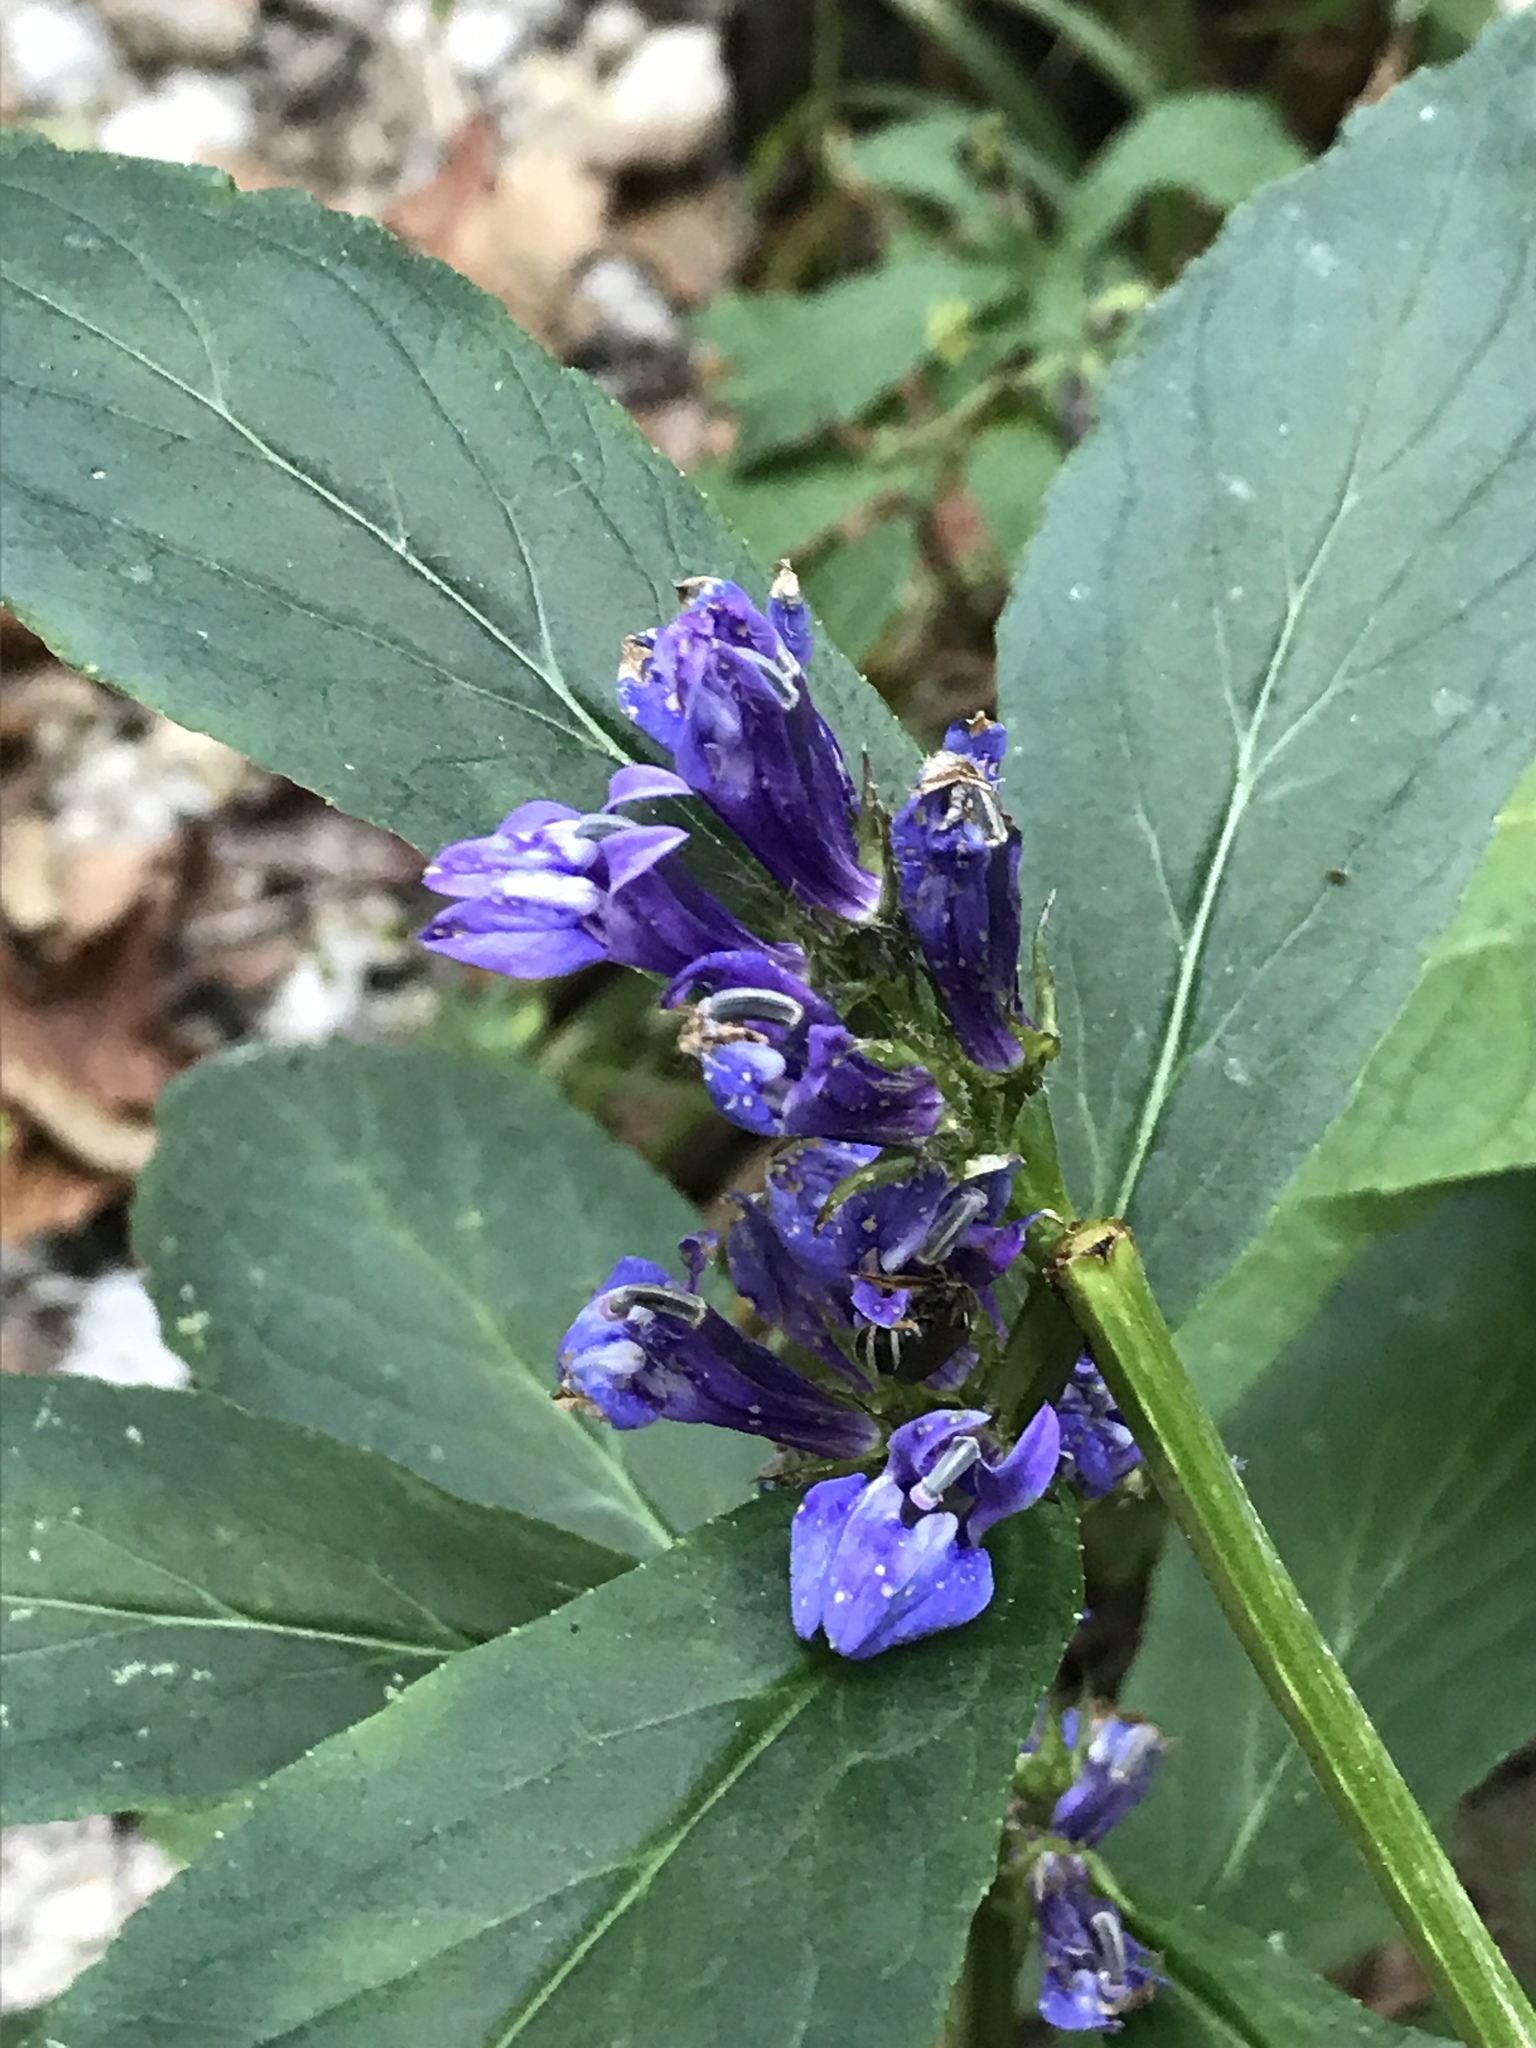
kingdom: Plantae
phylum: Tracheophyta
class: Magnoliopsida
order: Asterales
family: Campanulaceae
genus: Lobelia
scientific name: Lobelia siphilitica
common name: Great lobelia
